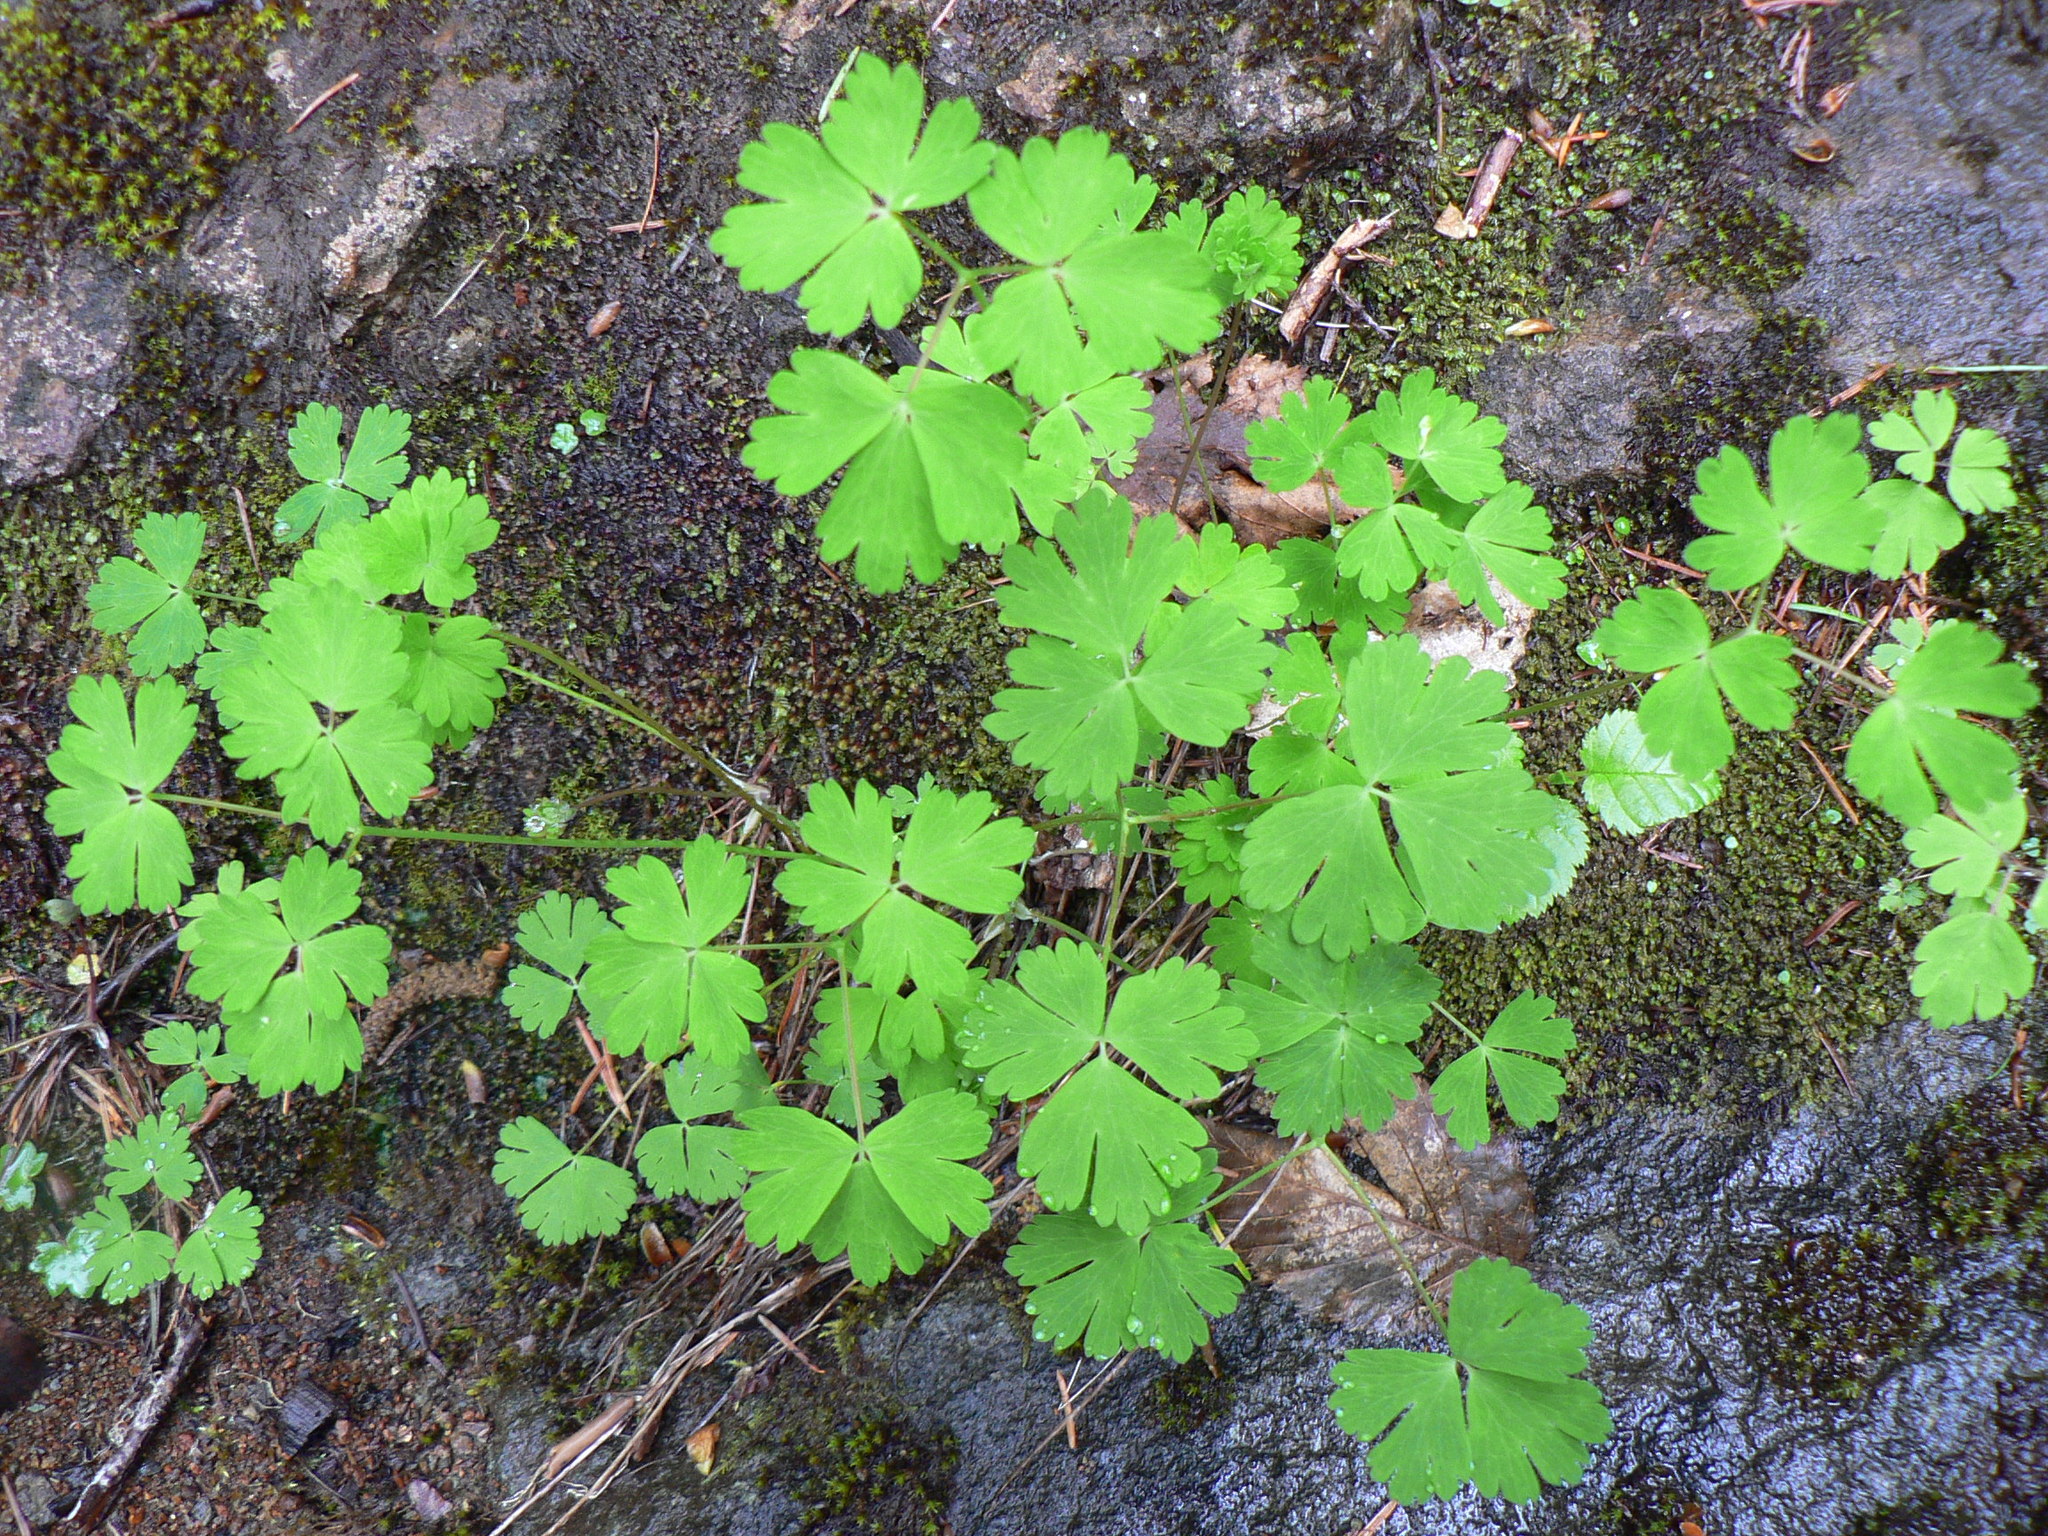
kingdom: Plantae
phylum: Tracheophyta
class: Magnoliopsida
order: Ranunculales
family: Ranunculaceae
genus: Aquilegia
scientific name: Aquilegia formosa
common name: Sitka columbine
